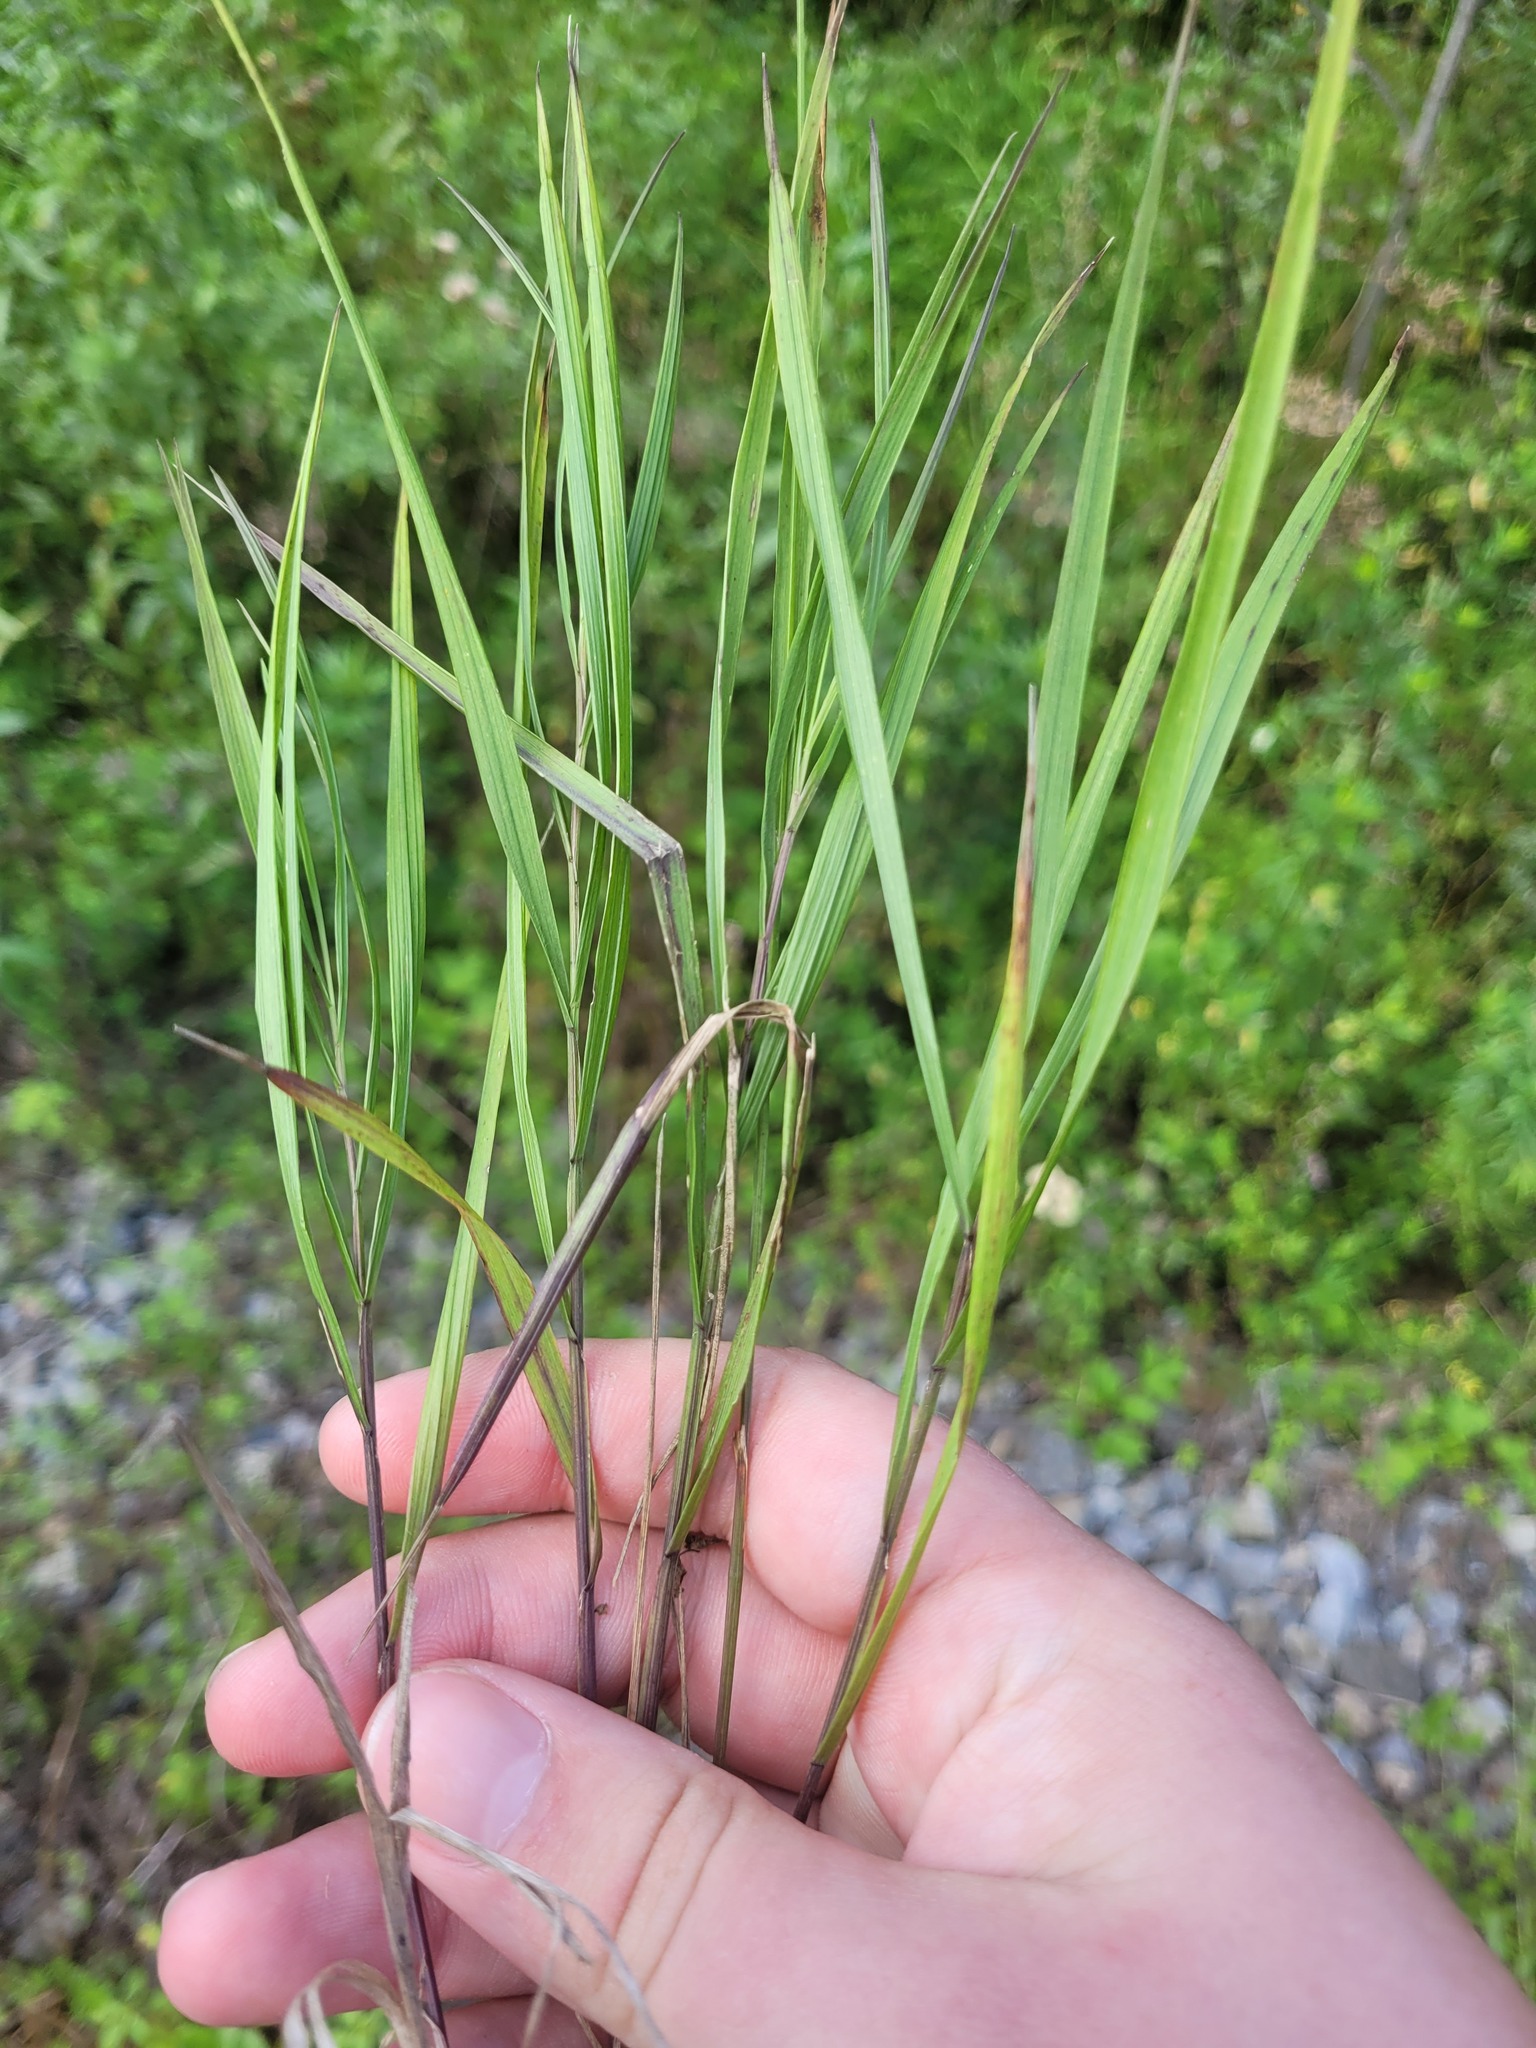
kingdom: Plantae
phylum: Tracheophyta
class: Liliopsida
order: Poales
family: Poaceae
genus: Melica
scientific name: Melica nutans
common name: Mountain melick
